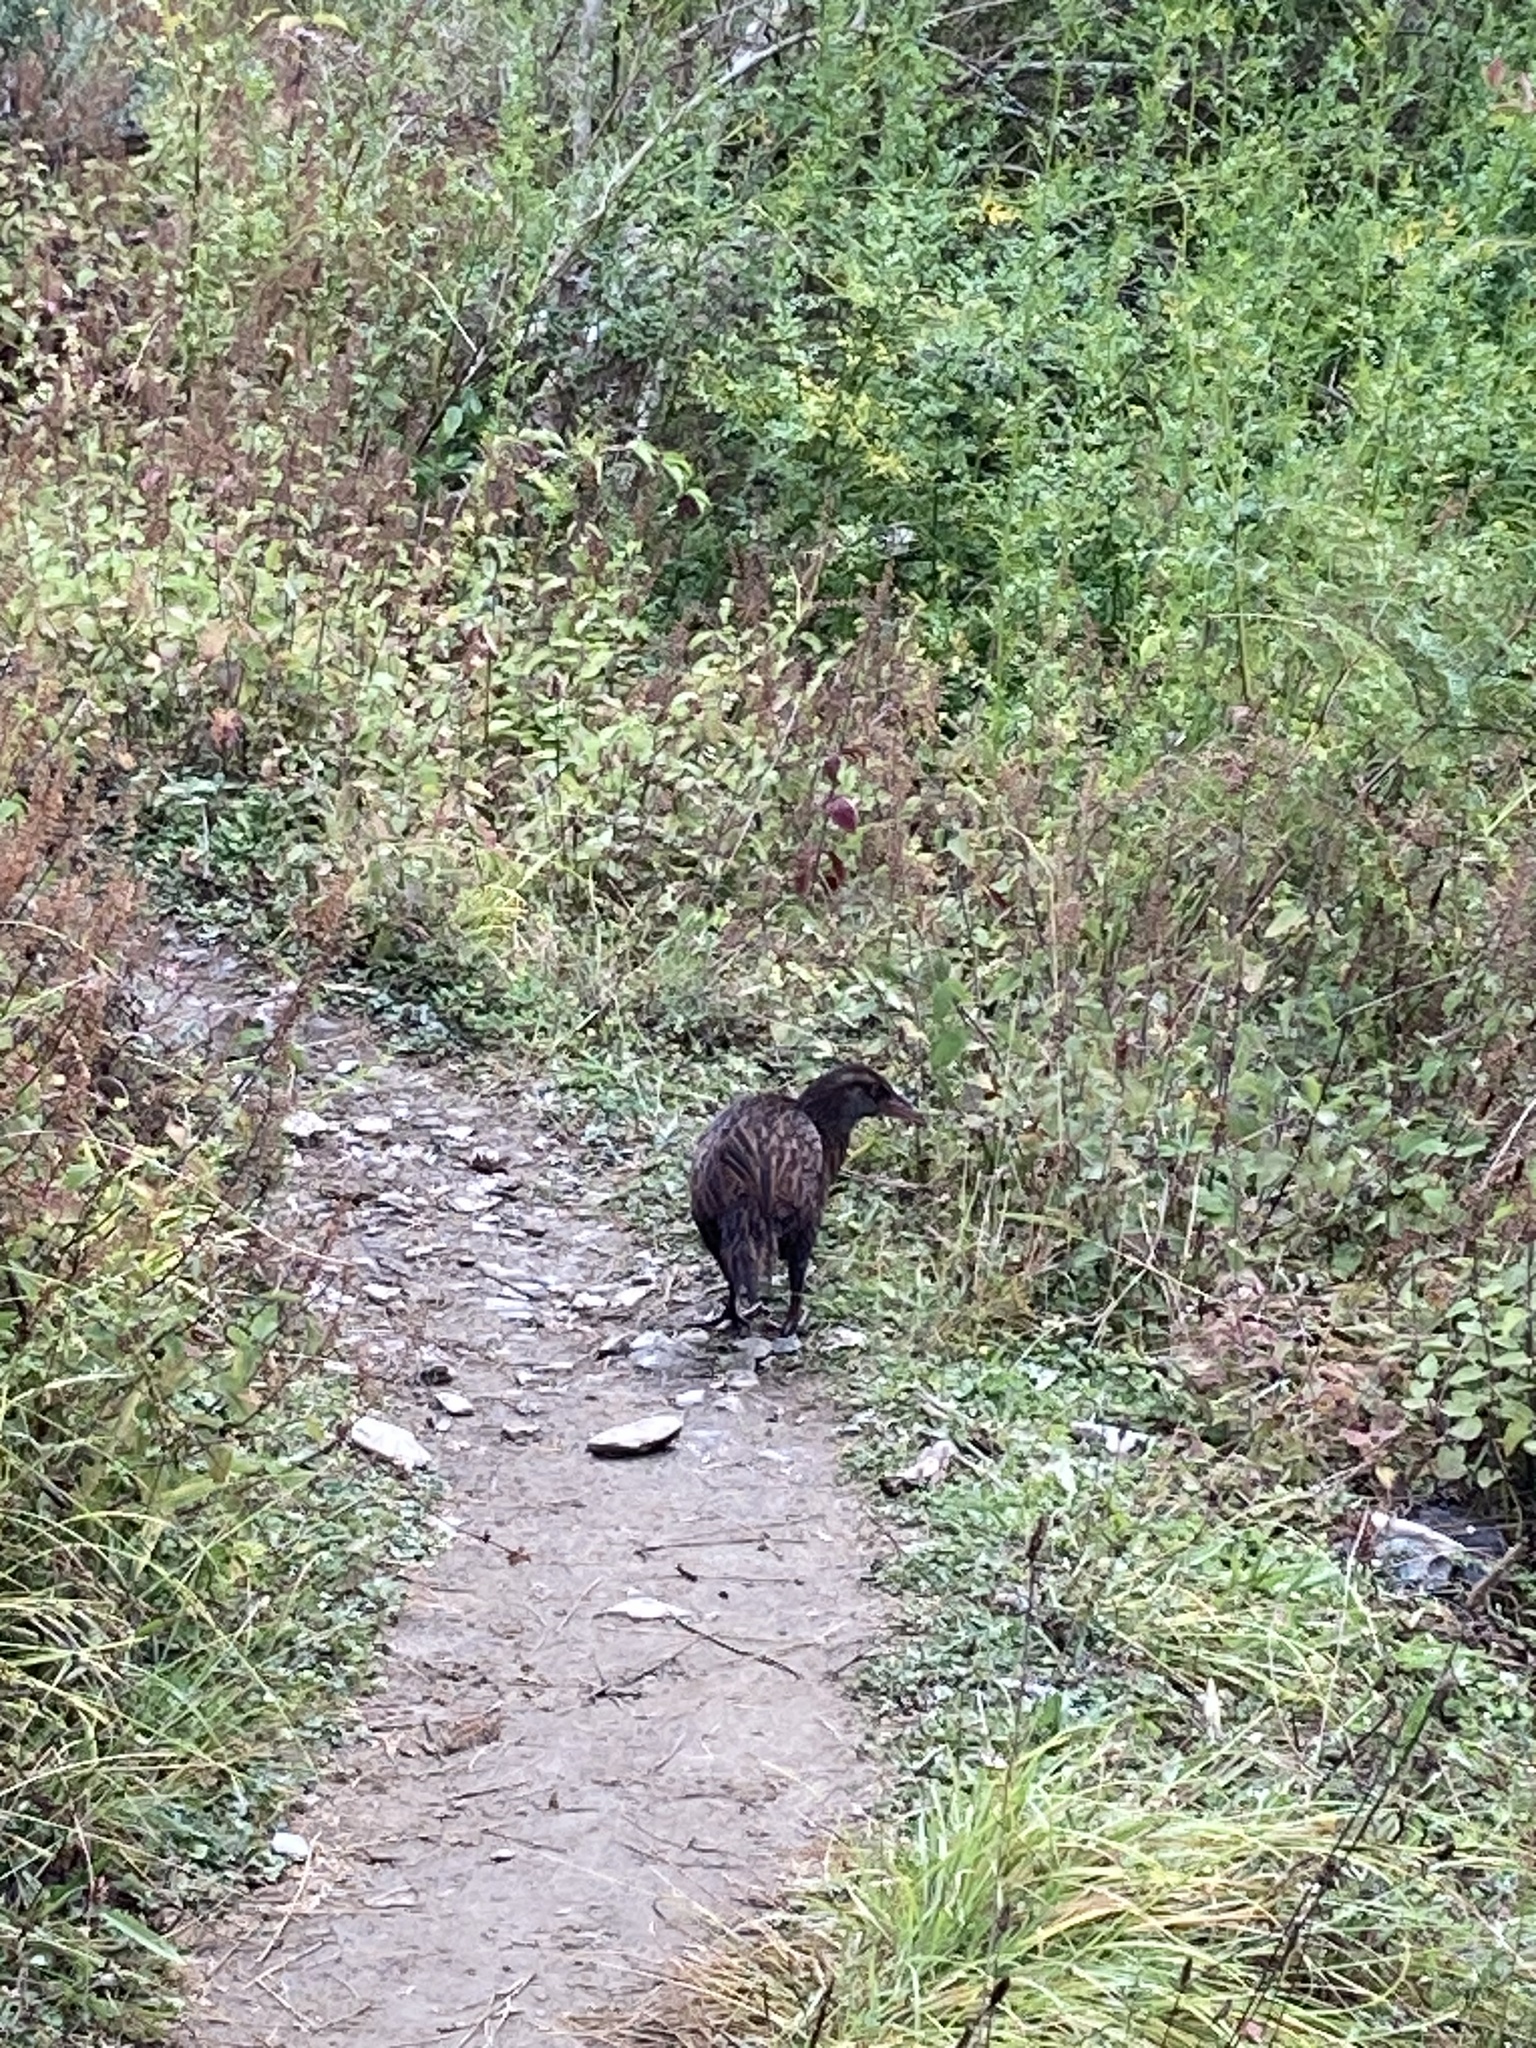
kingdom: Animalia
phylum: Chordata
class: Aves
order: Gruiformes
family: Rallidae
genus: Gallirallus
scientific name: Gallirallus australis
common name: Weka
